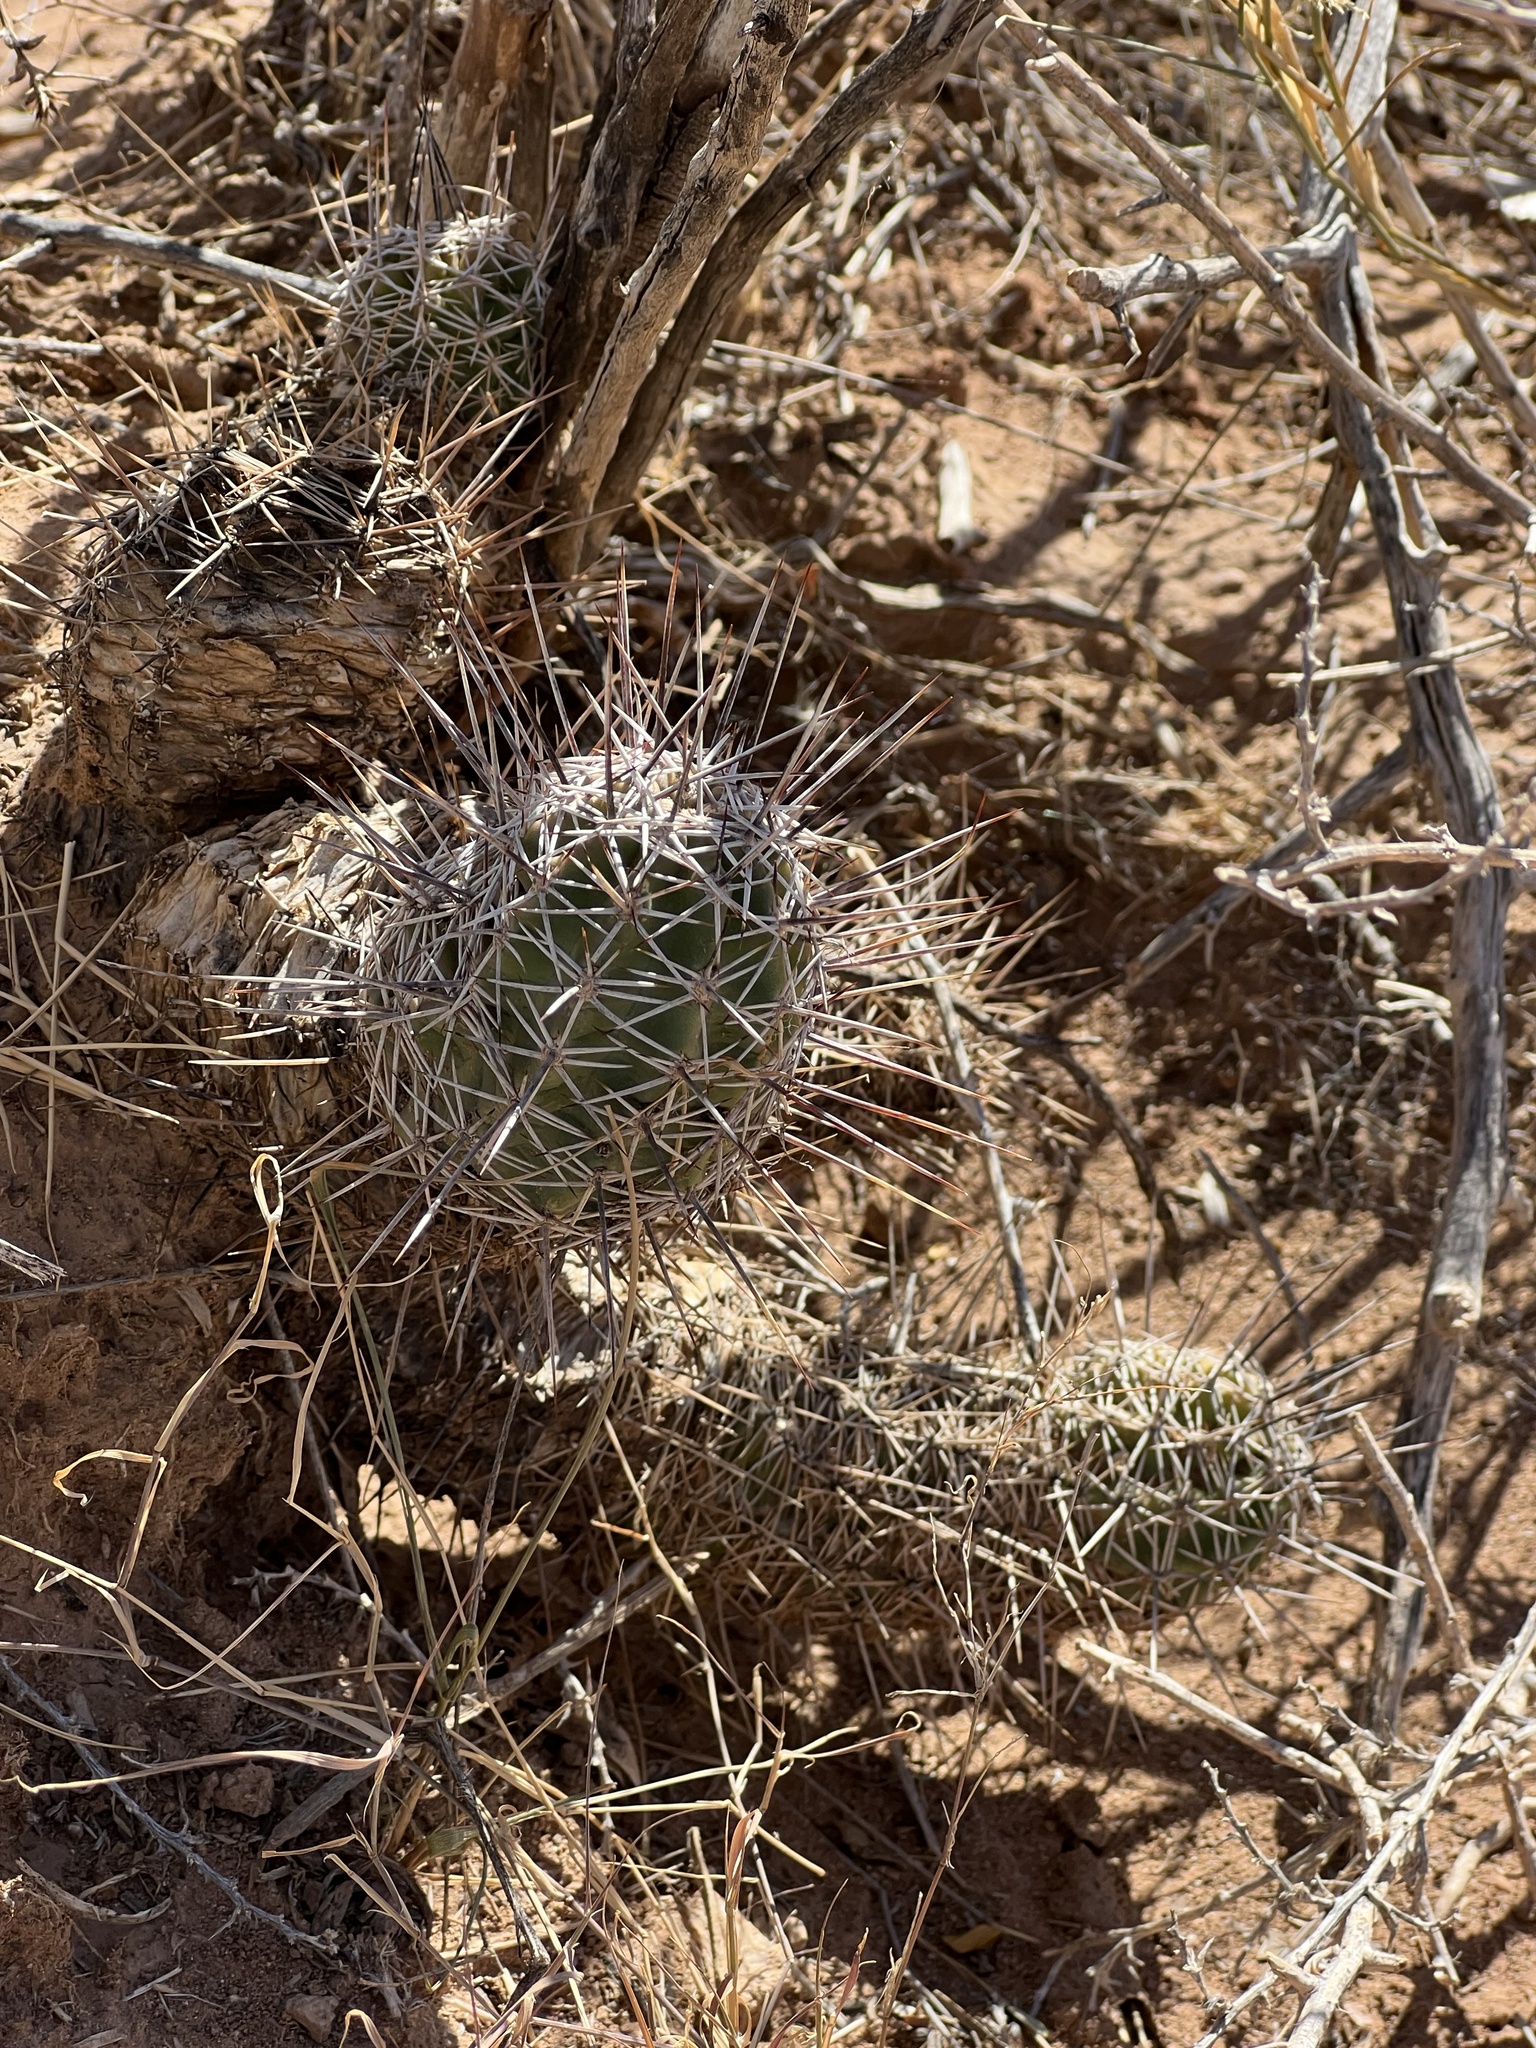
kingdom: Plantae
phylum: Tracheophyta
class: Magnoliopsida
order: Caryophyllales
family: Cactaceae
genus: Echinocereus
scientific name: Echinocereus fendleri
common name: Fendler's hedgehog cactus
